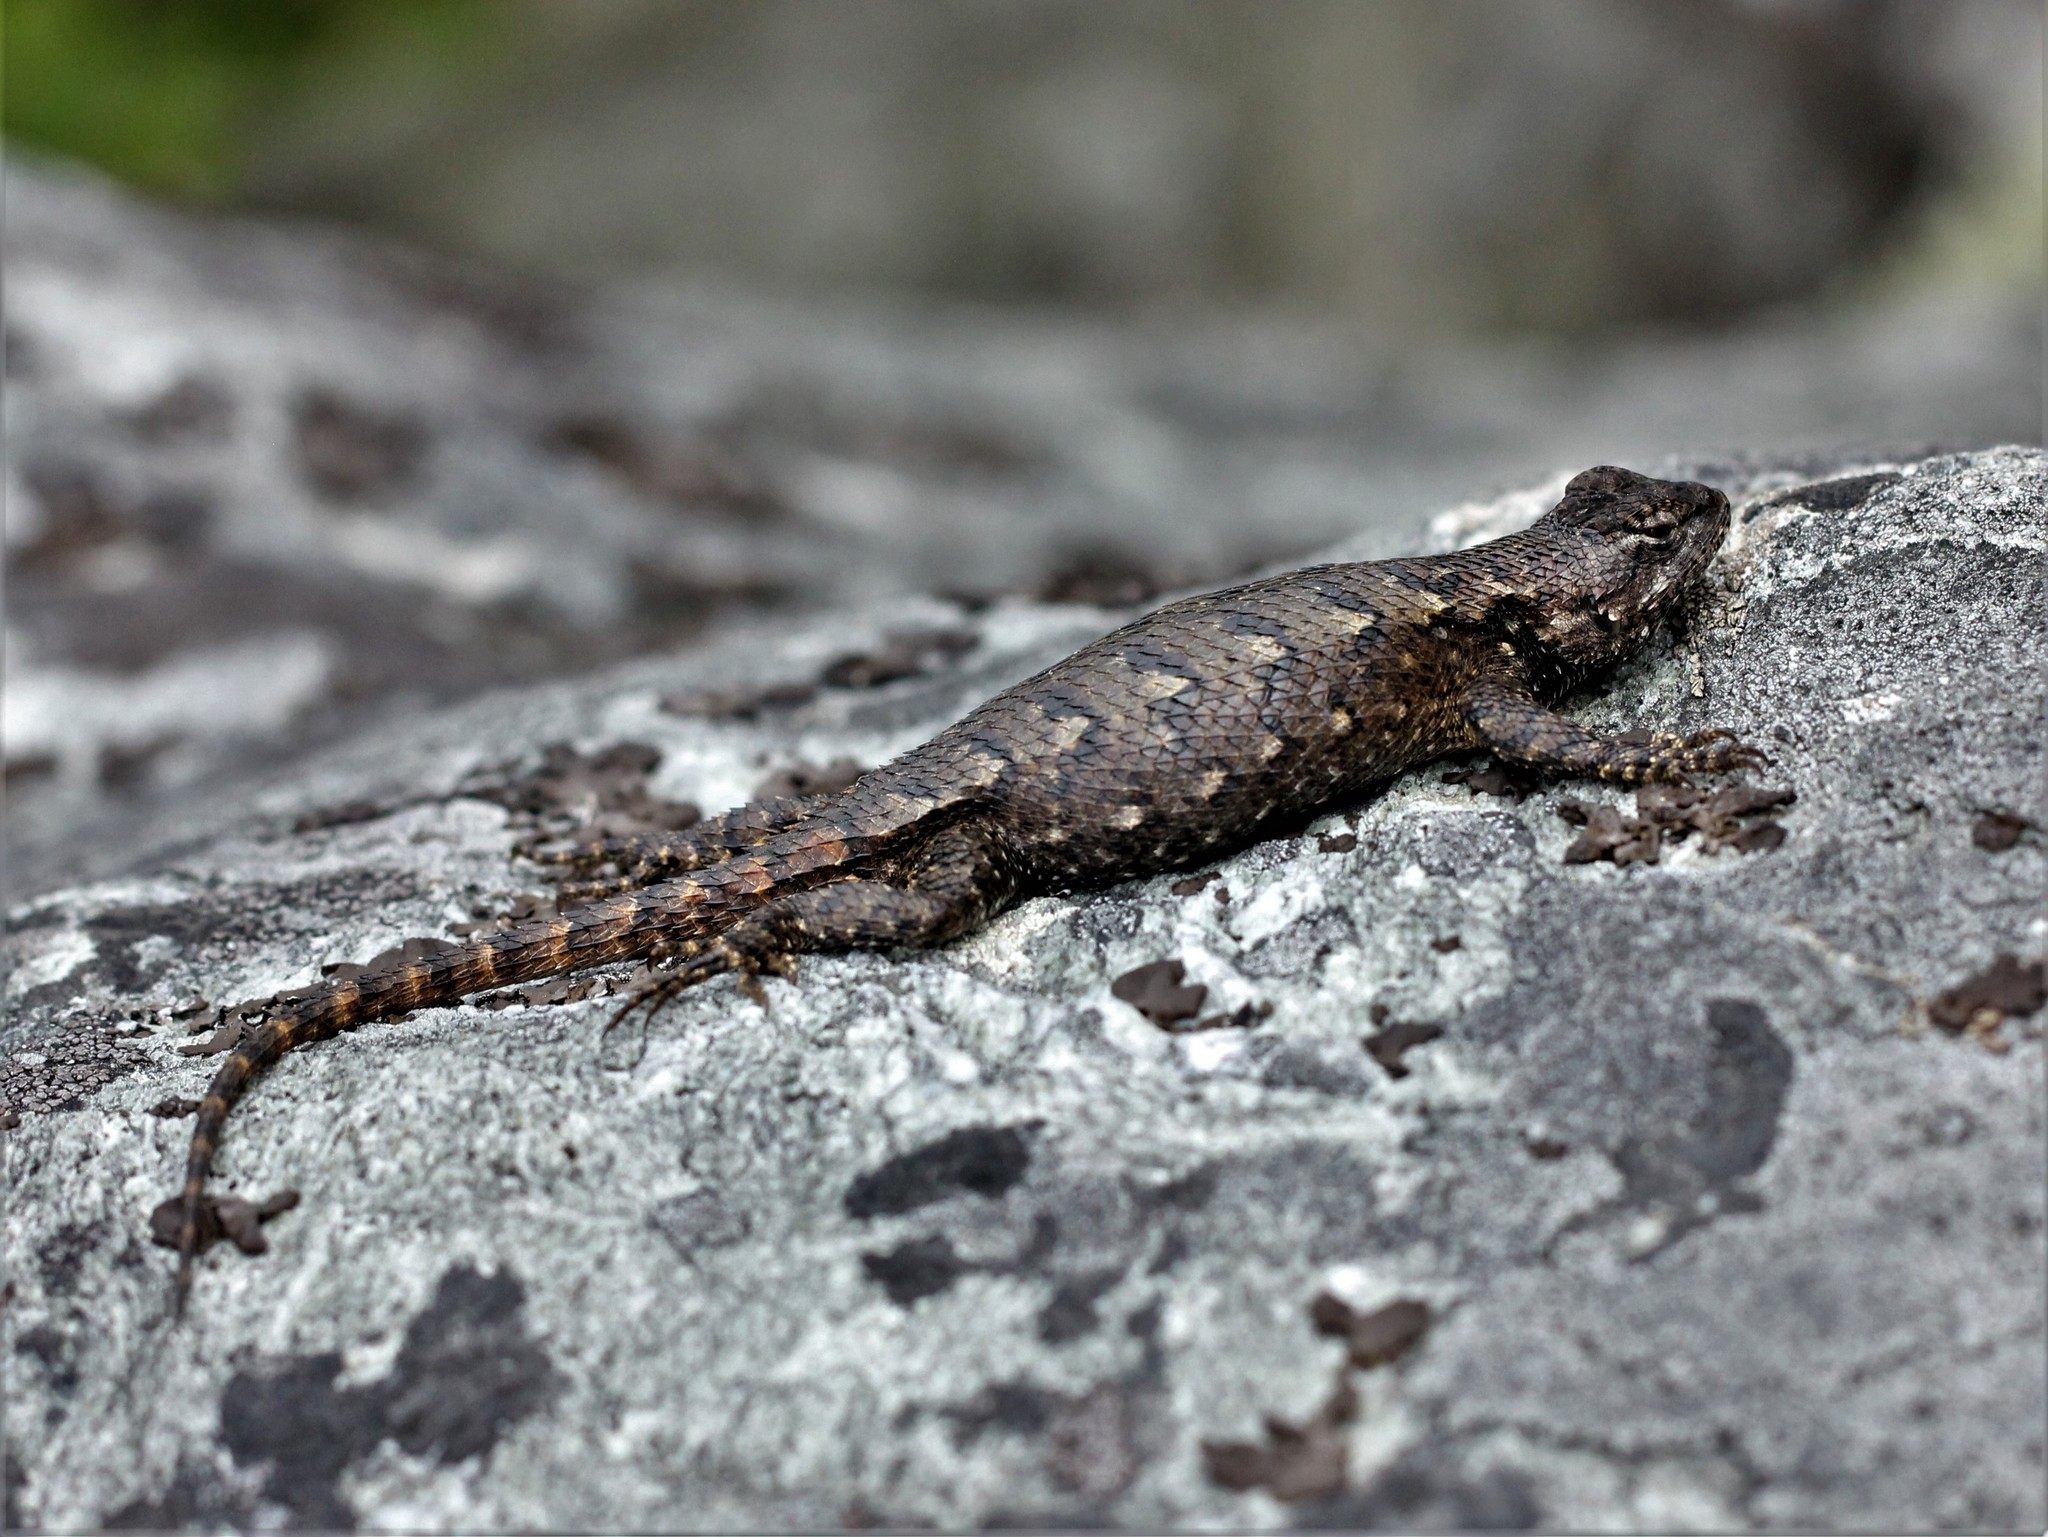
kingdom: Animalia
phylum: Chordata
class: Squamata
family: Phrynosomatidae
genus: Sceloporus
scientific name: Sceloporus undulatus
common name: Eastern fence lizard
